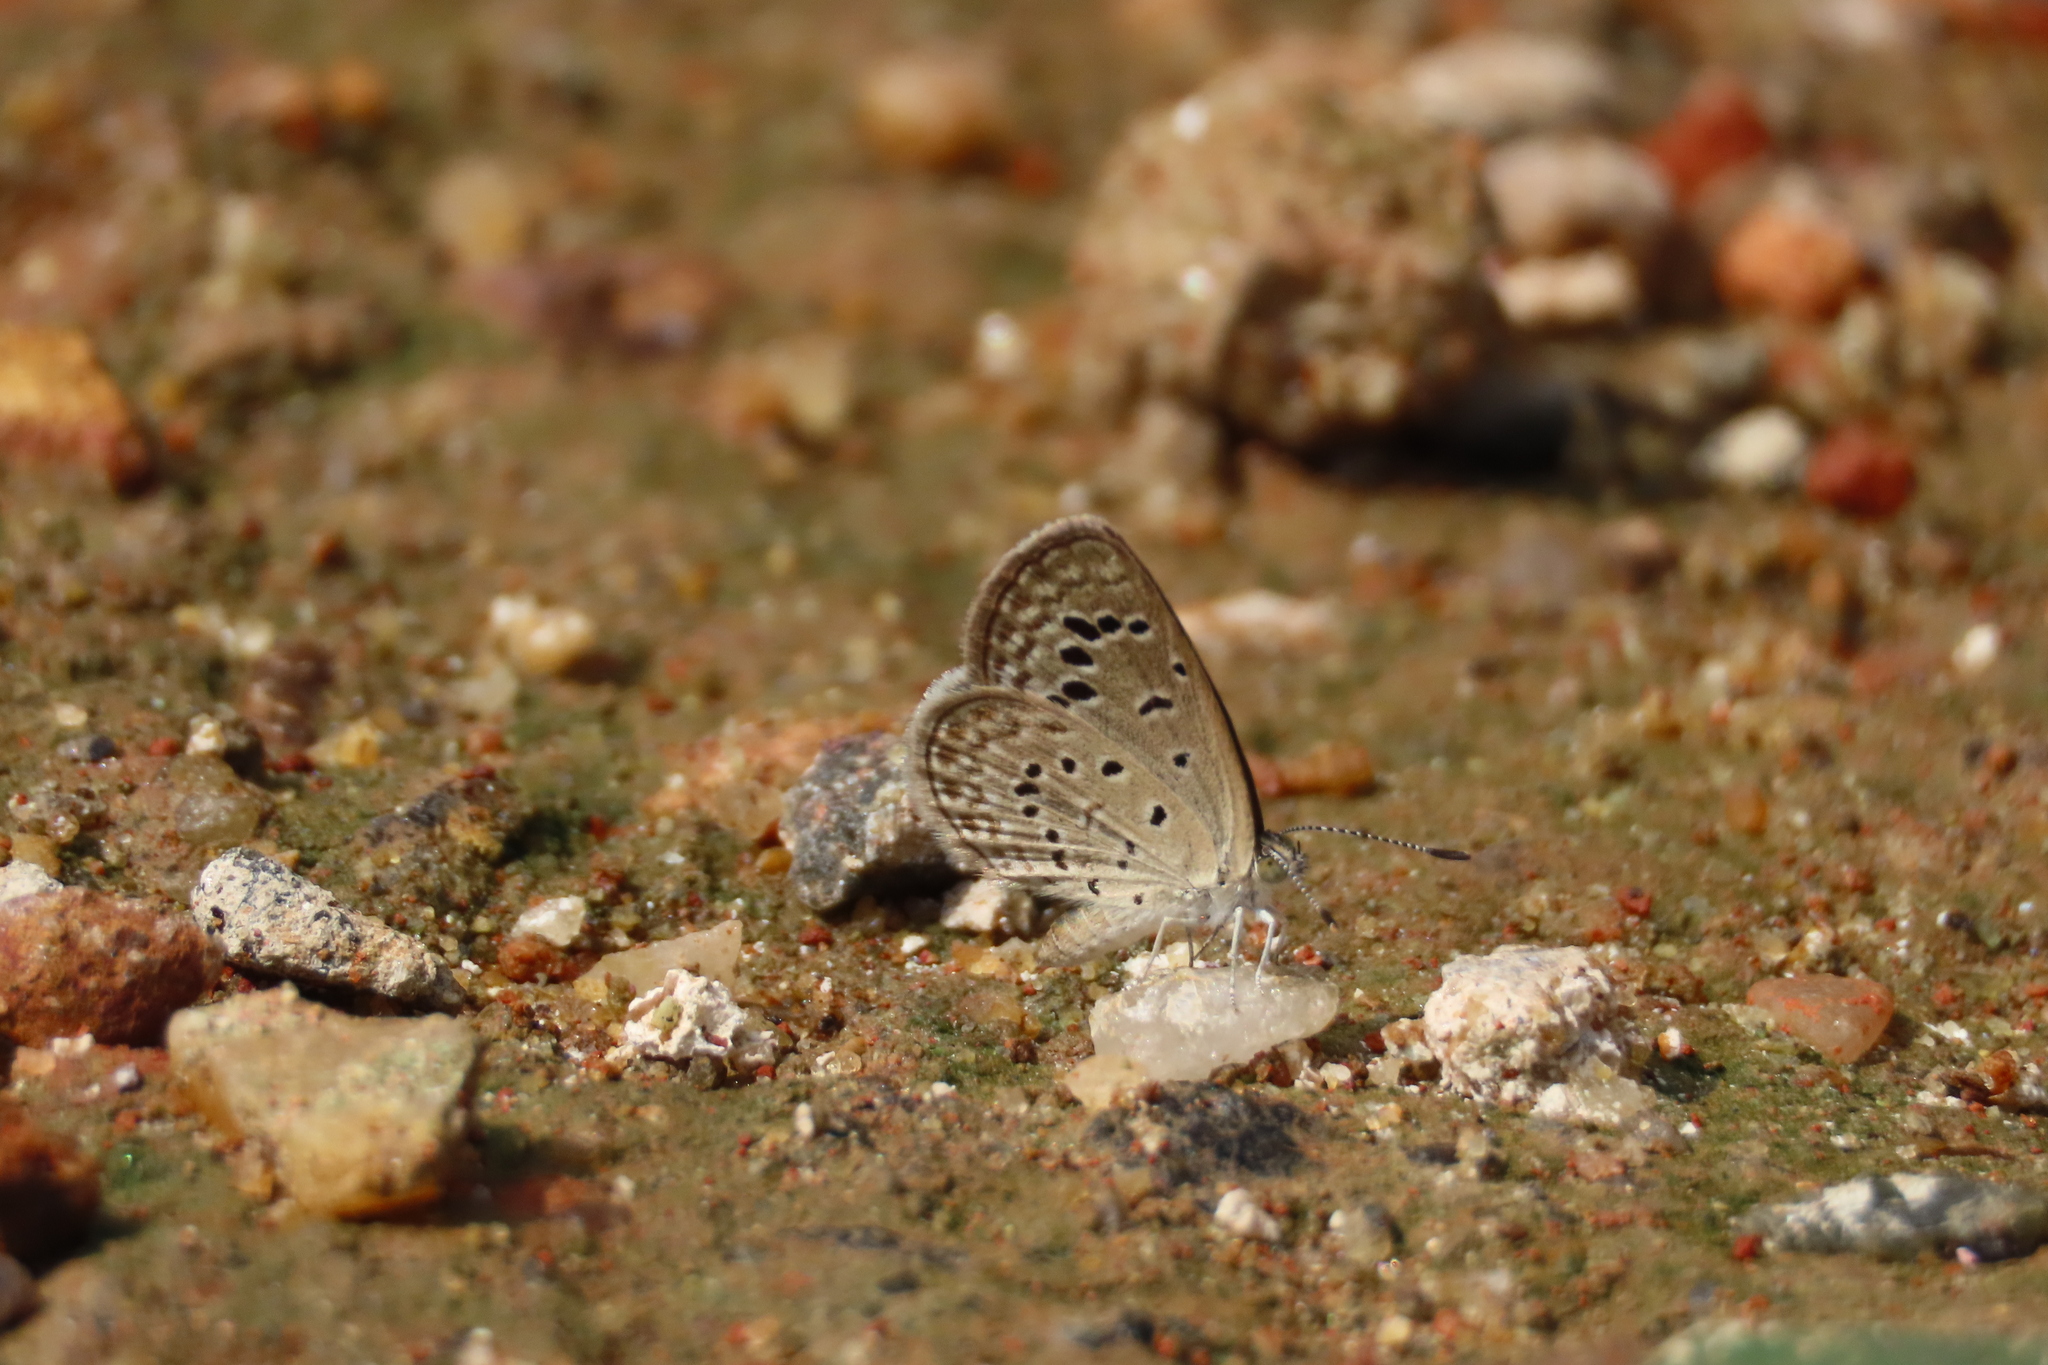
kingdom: Animalia
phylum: Arthropoda
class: Insecta
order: Lepidoptera
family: Lycaenidae
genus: Zizeeria
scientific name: Zizeeria karsandra
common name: Dark grass blue
